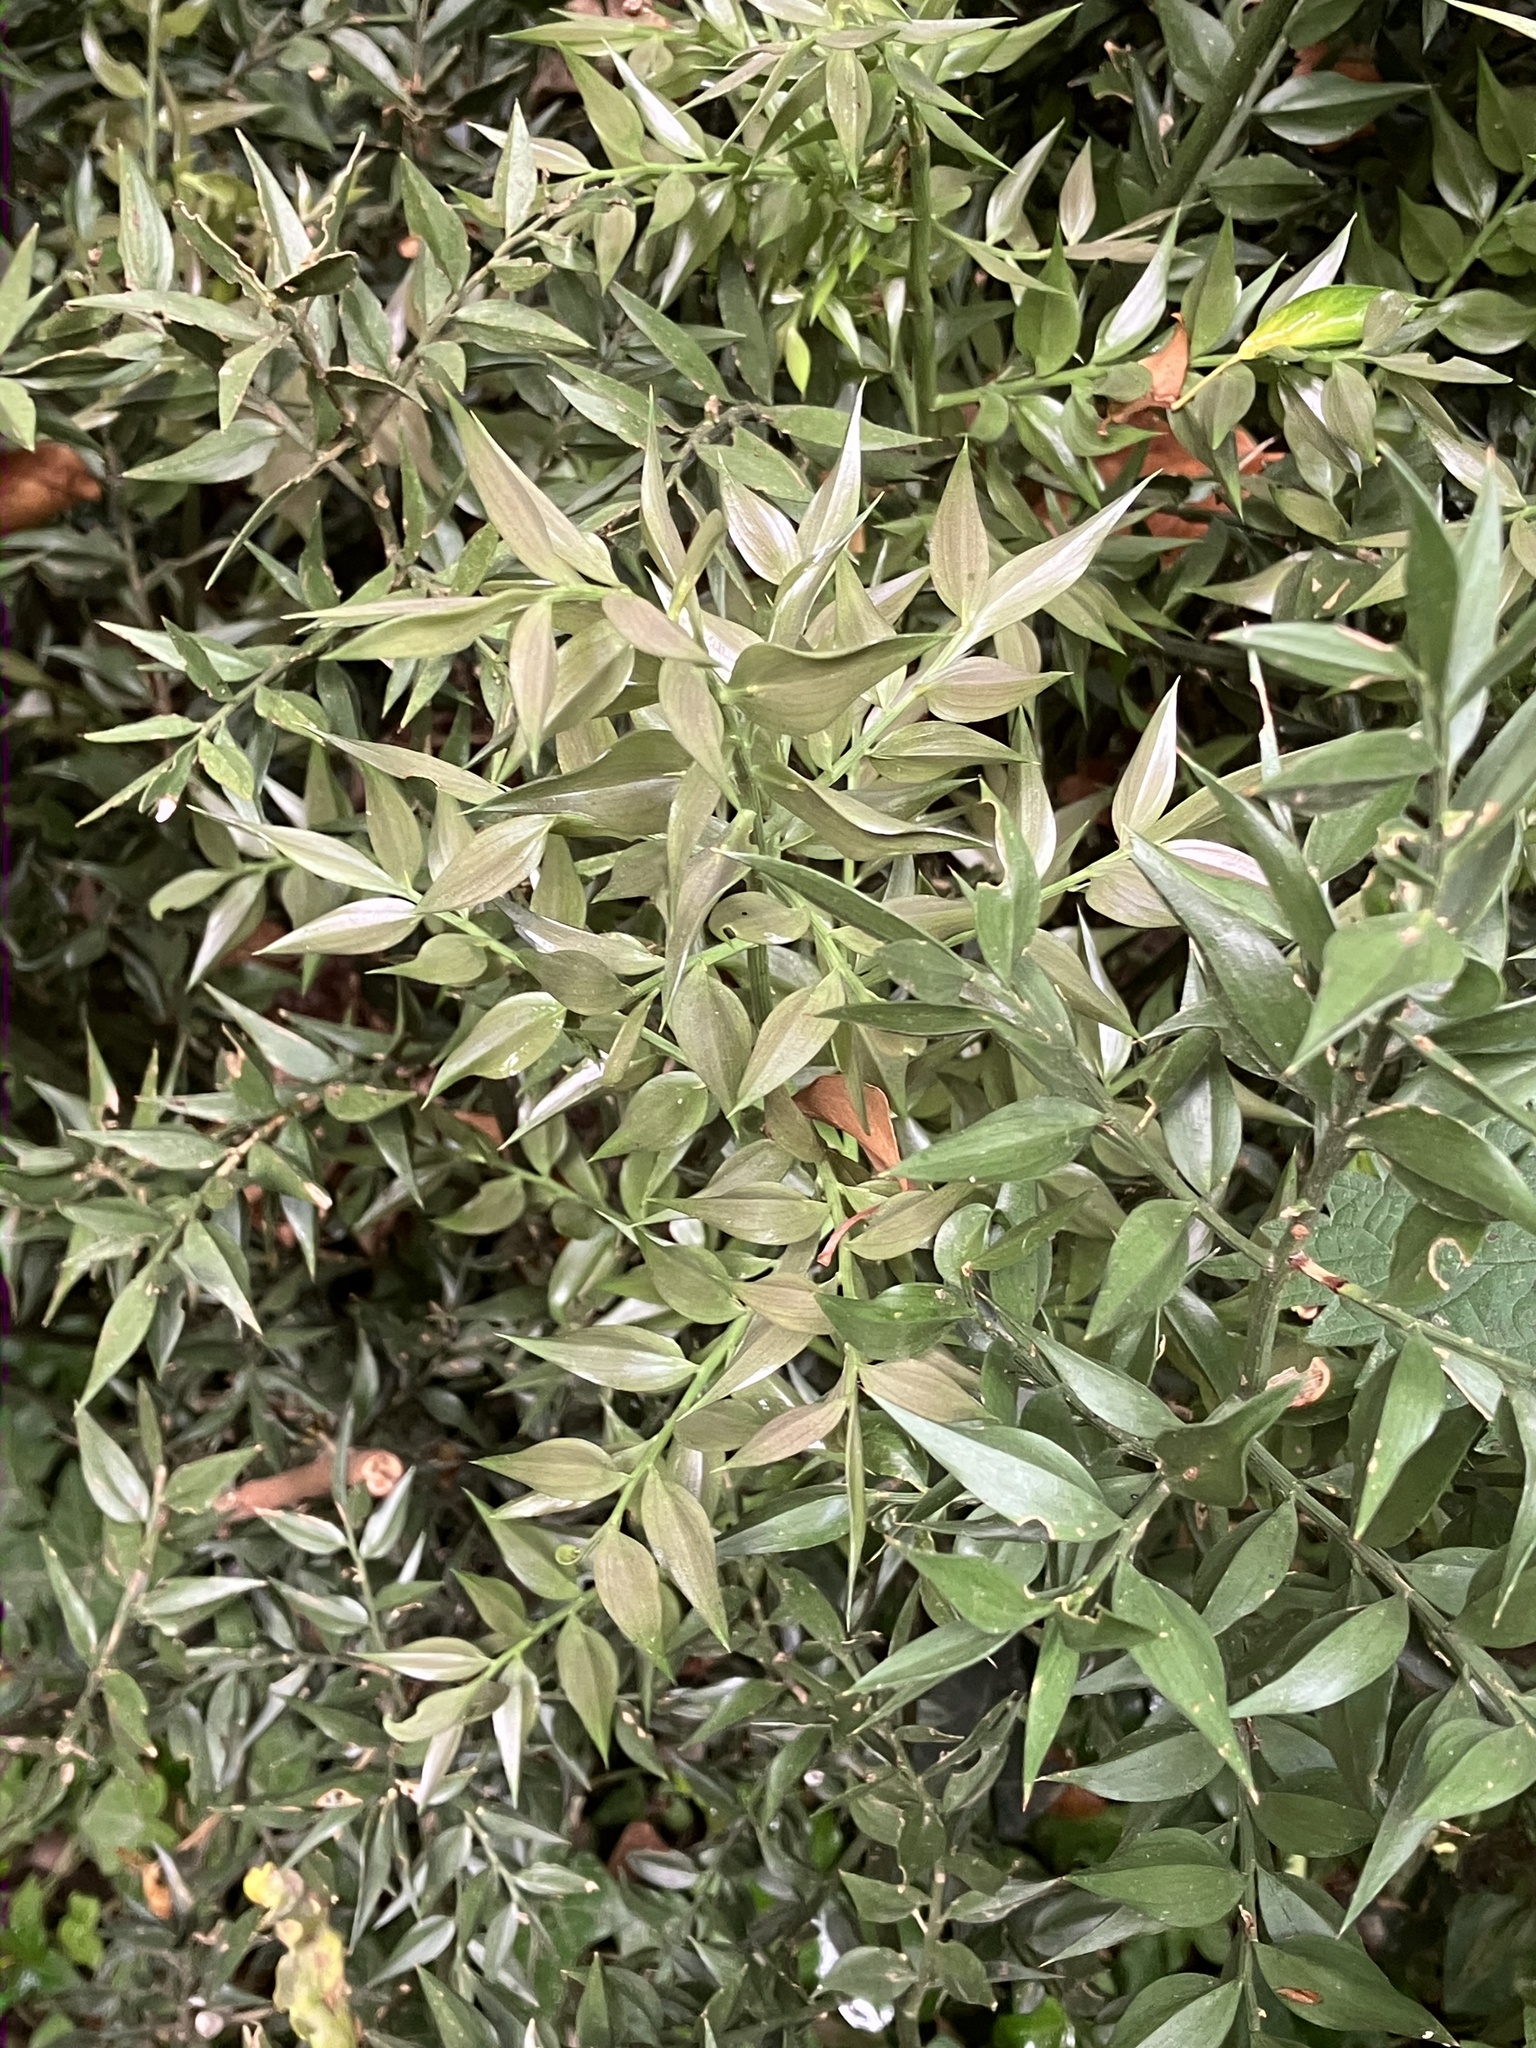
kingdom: Plantae
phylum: Tracheophyta
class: Liliopsida
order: Asparagales
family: Asparagaceae
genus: Ruscus
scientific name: Ruscus aculeatus
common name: Butcher's-broom
